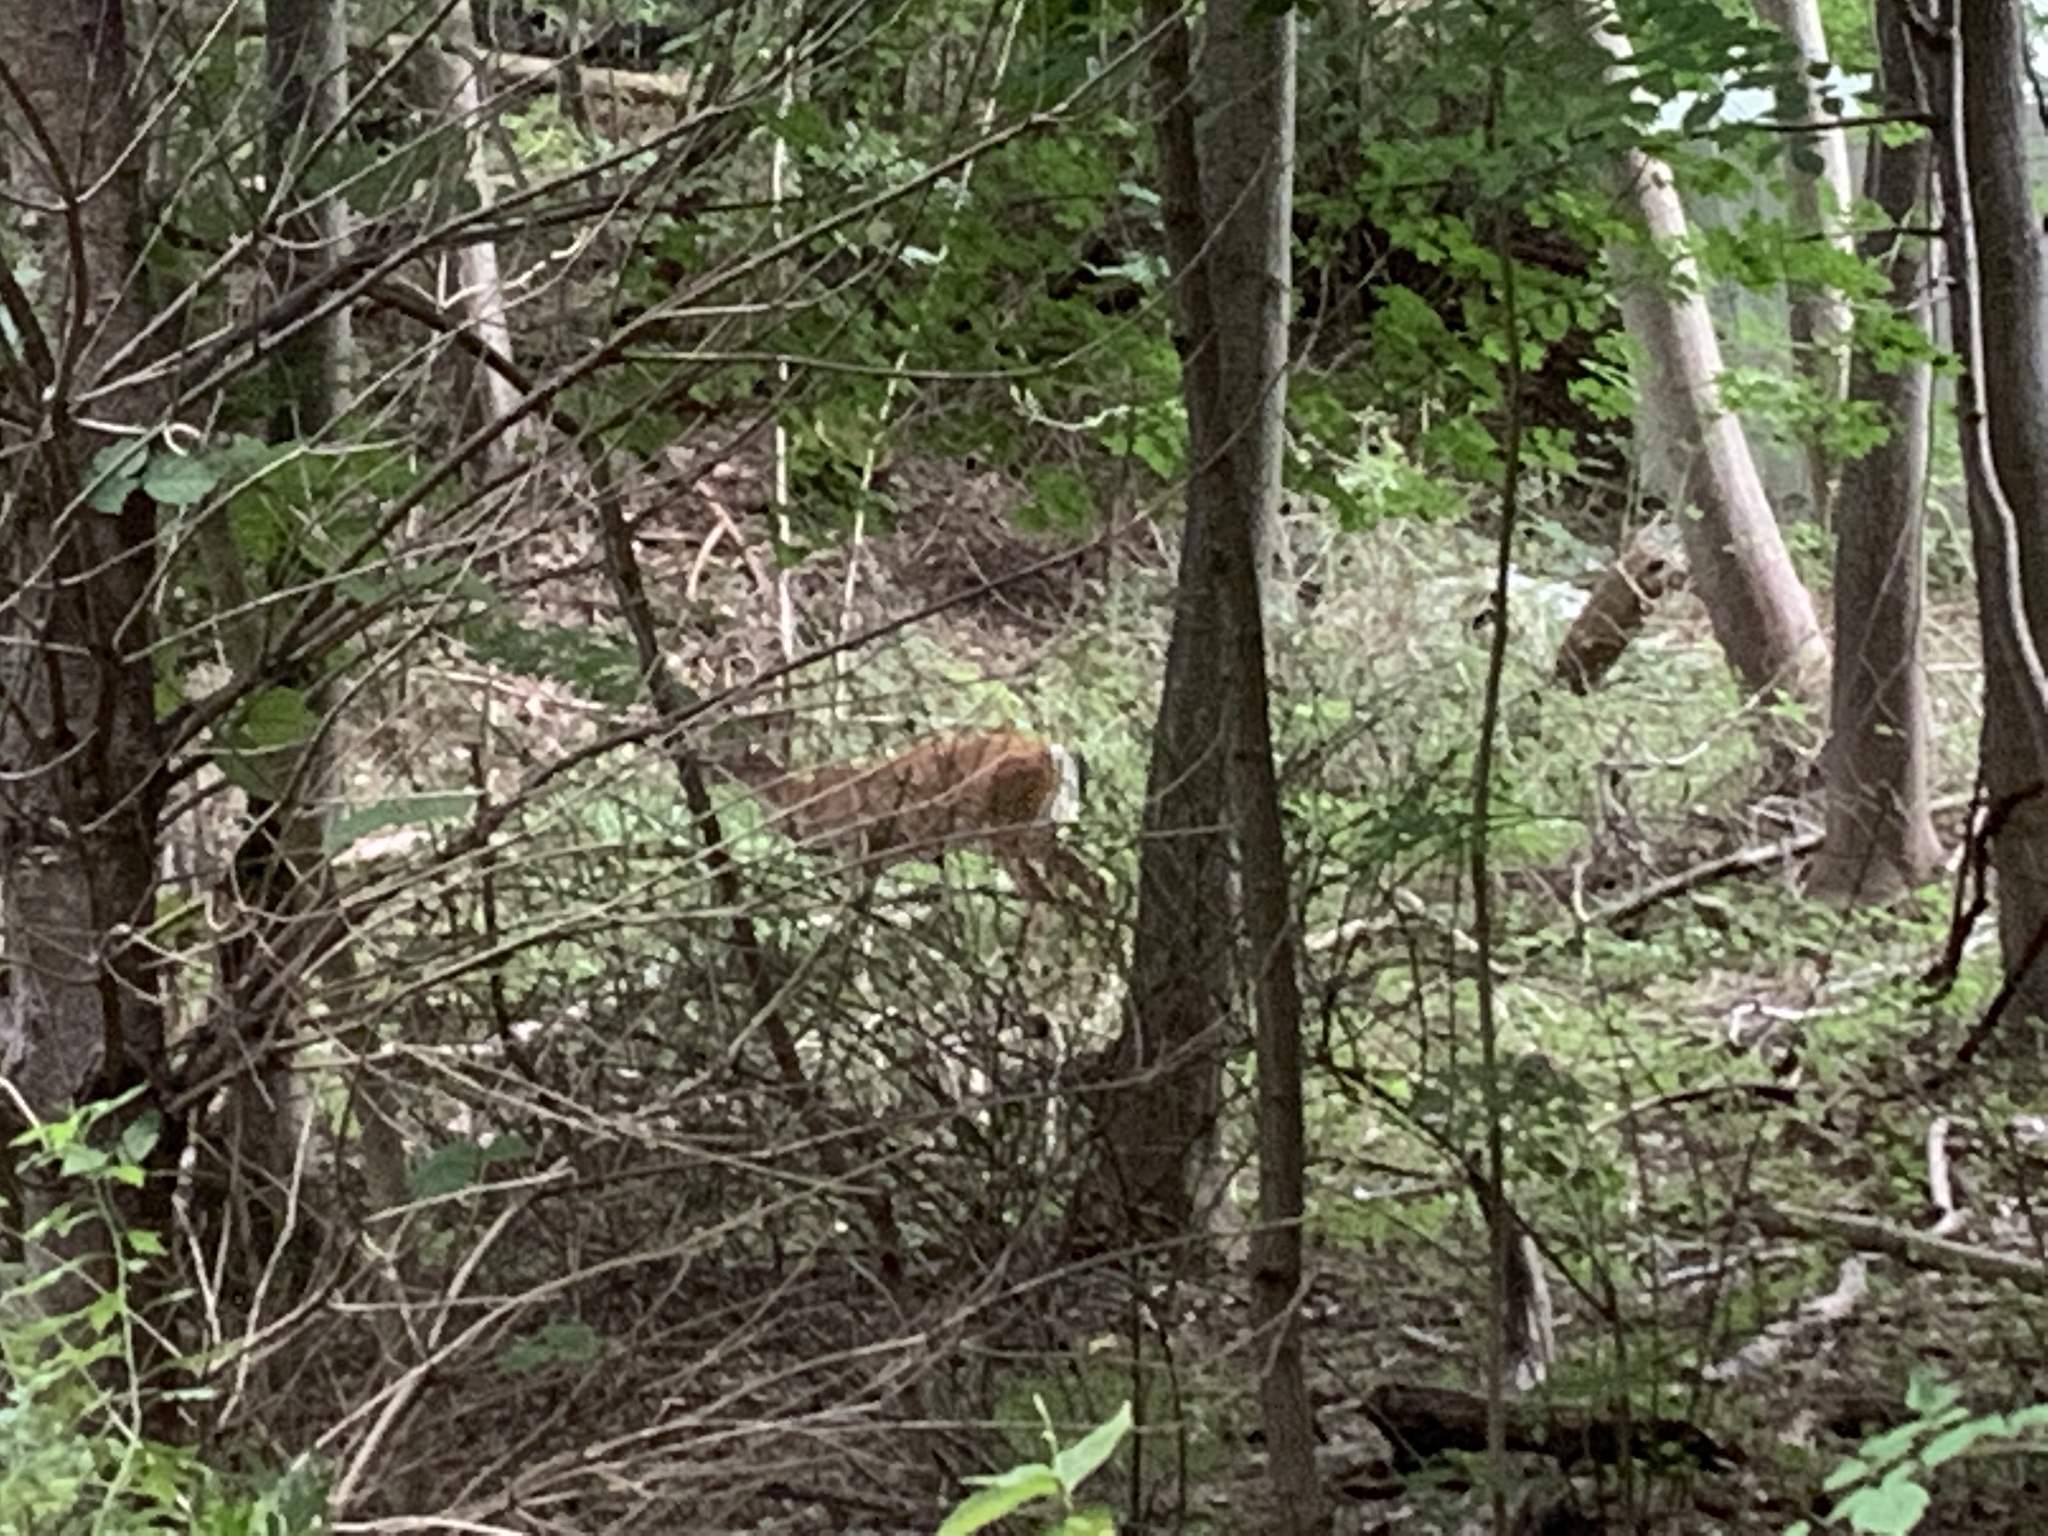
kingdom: Animalia
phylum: Chordata
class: Mammalia
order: Artiodactyla
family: Cervidae
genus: Odocoileus
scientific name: Odocoileus virginianus
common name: White-tailed deer
